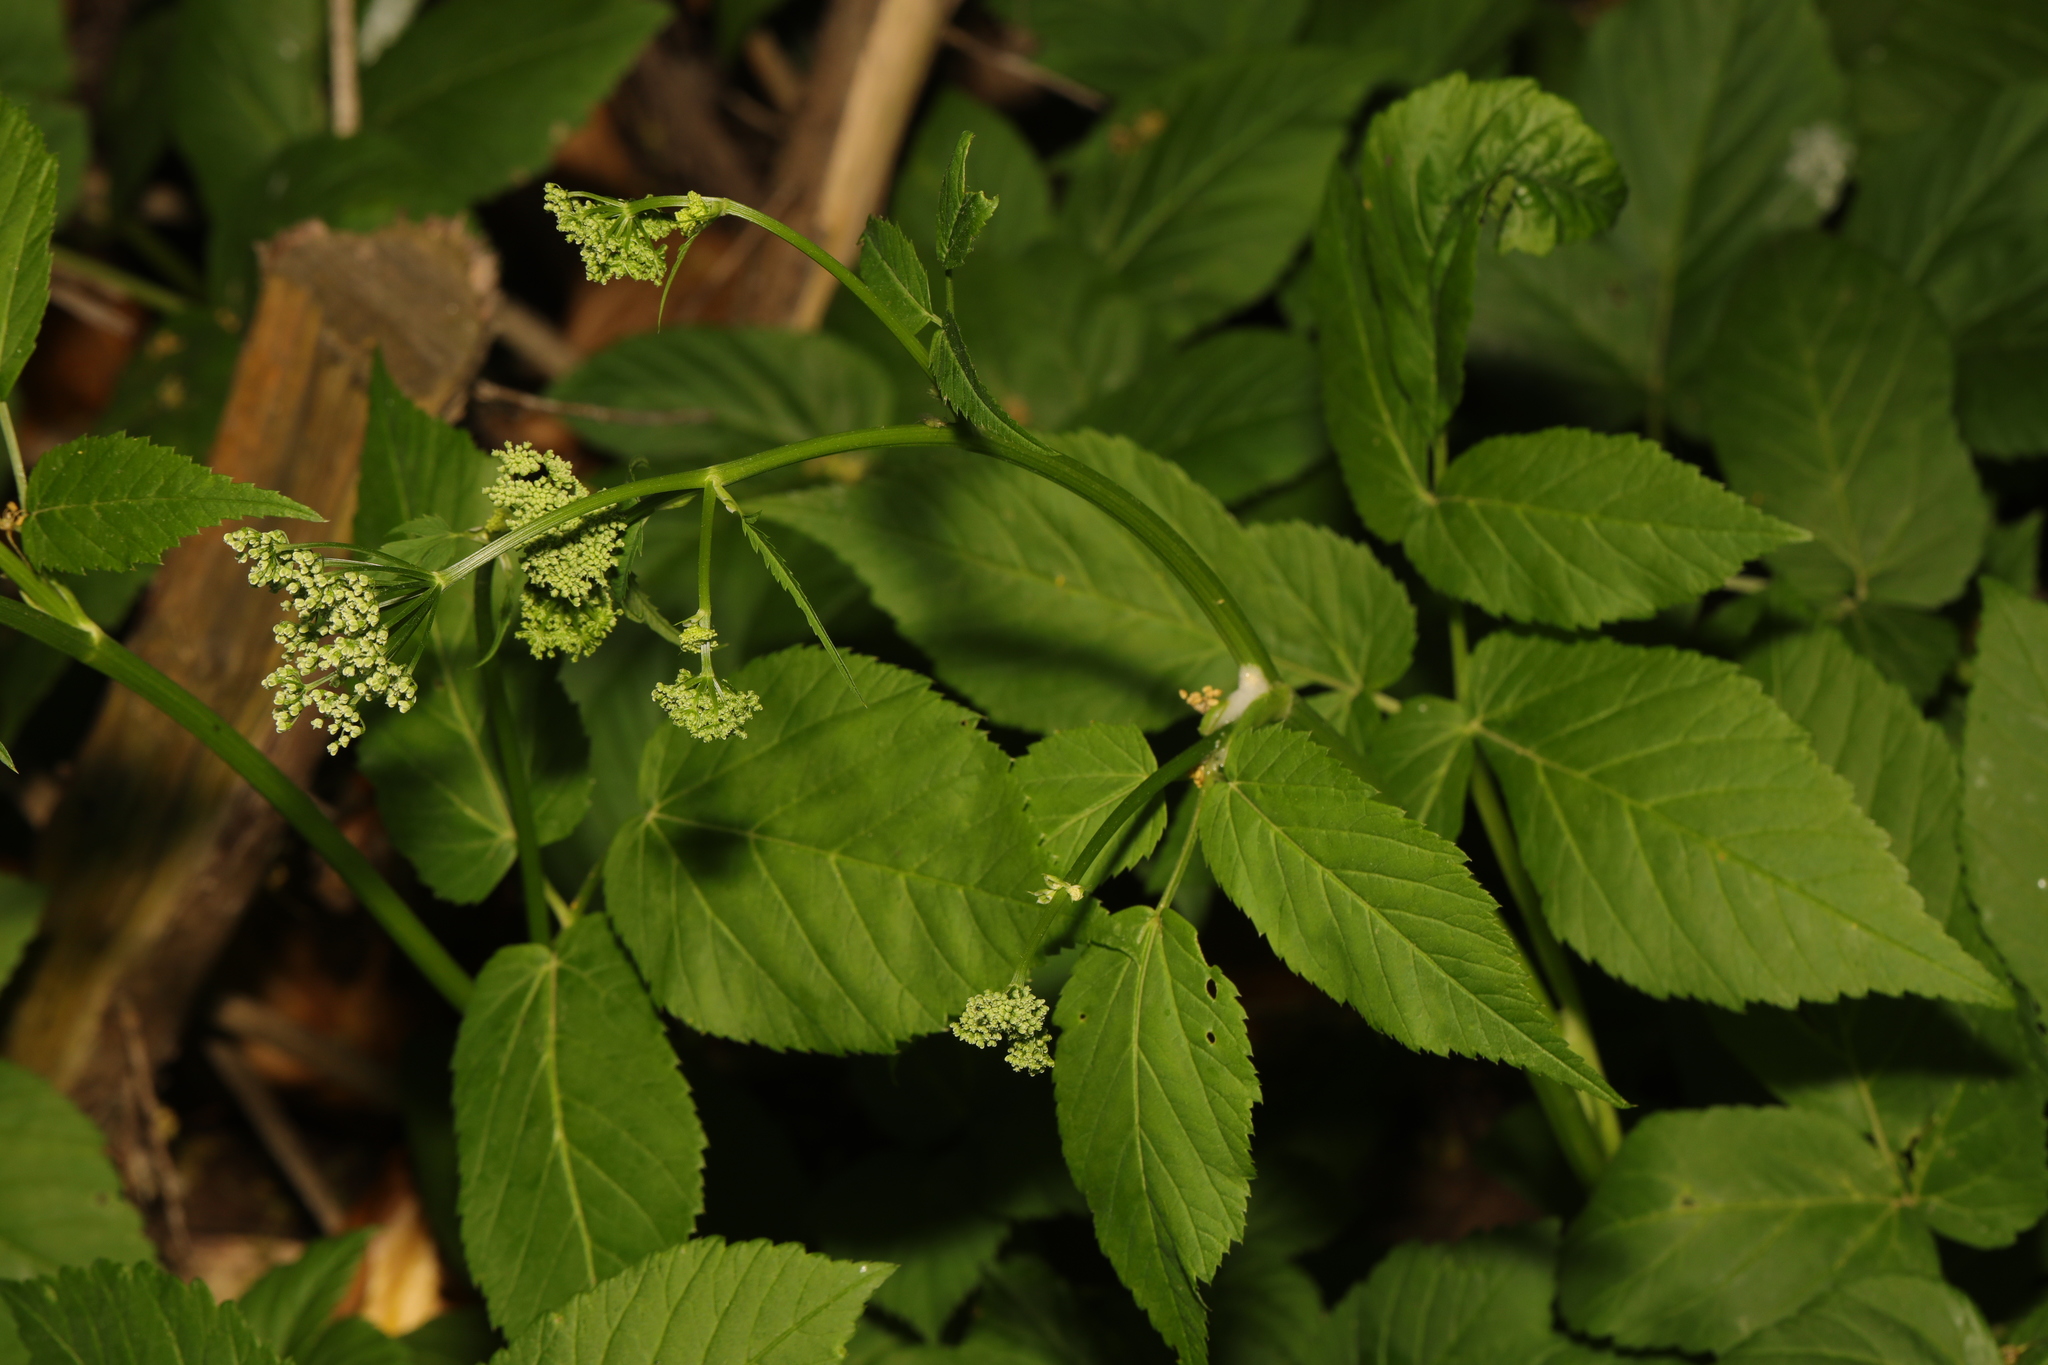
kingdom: Plantae
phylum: Tracheophyta
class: Magnoliopsida
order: Apiales
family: Apiaceae
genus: Aegopodium
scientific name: Aegopodium podagraria
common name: Ground-elder
